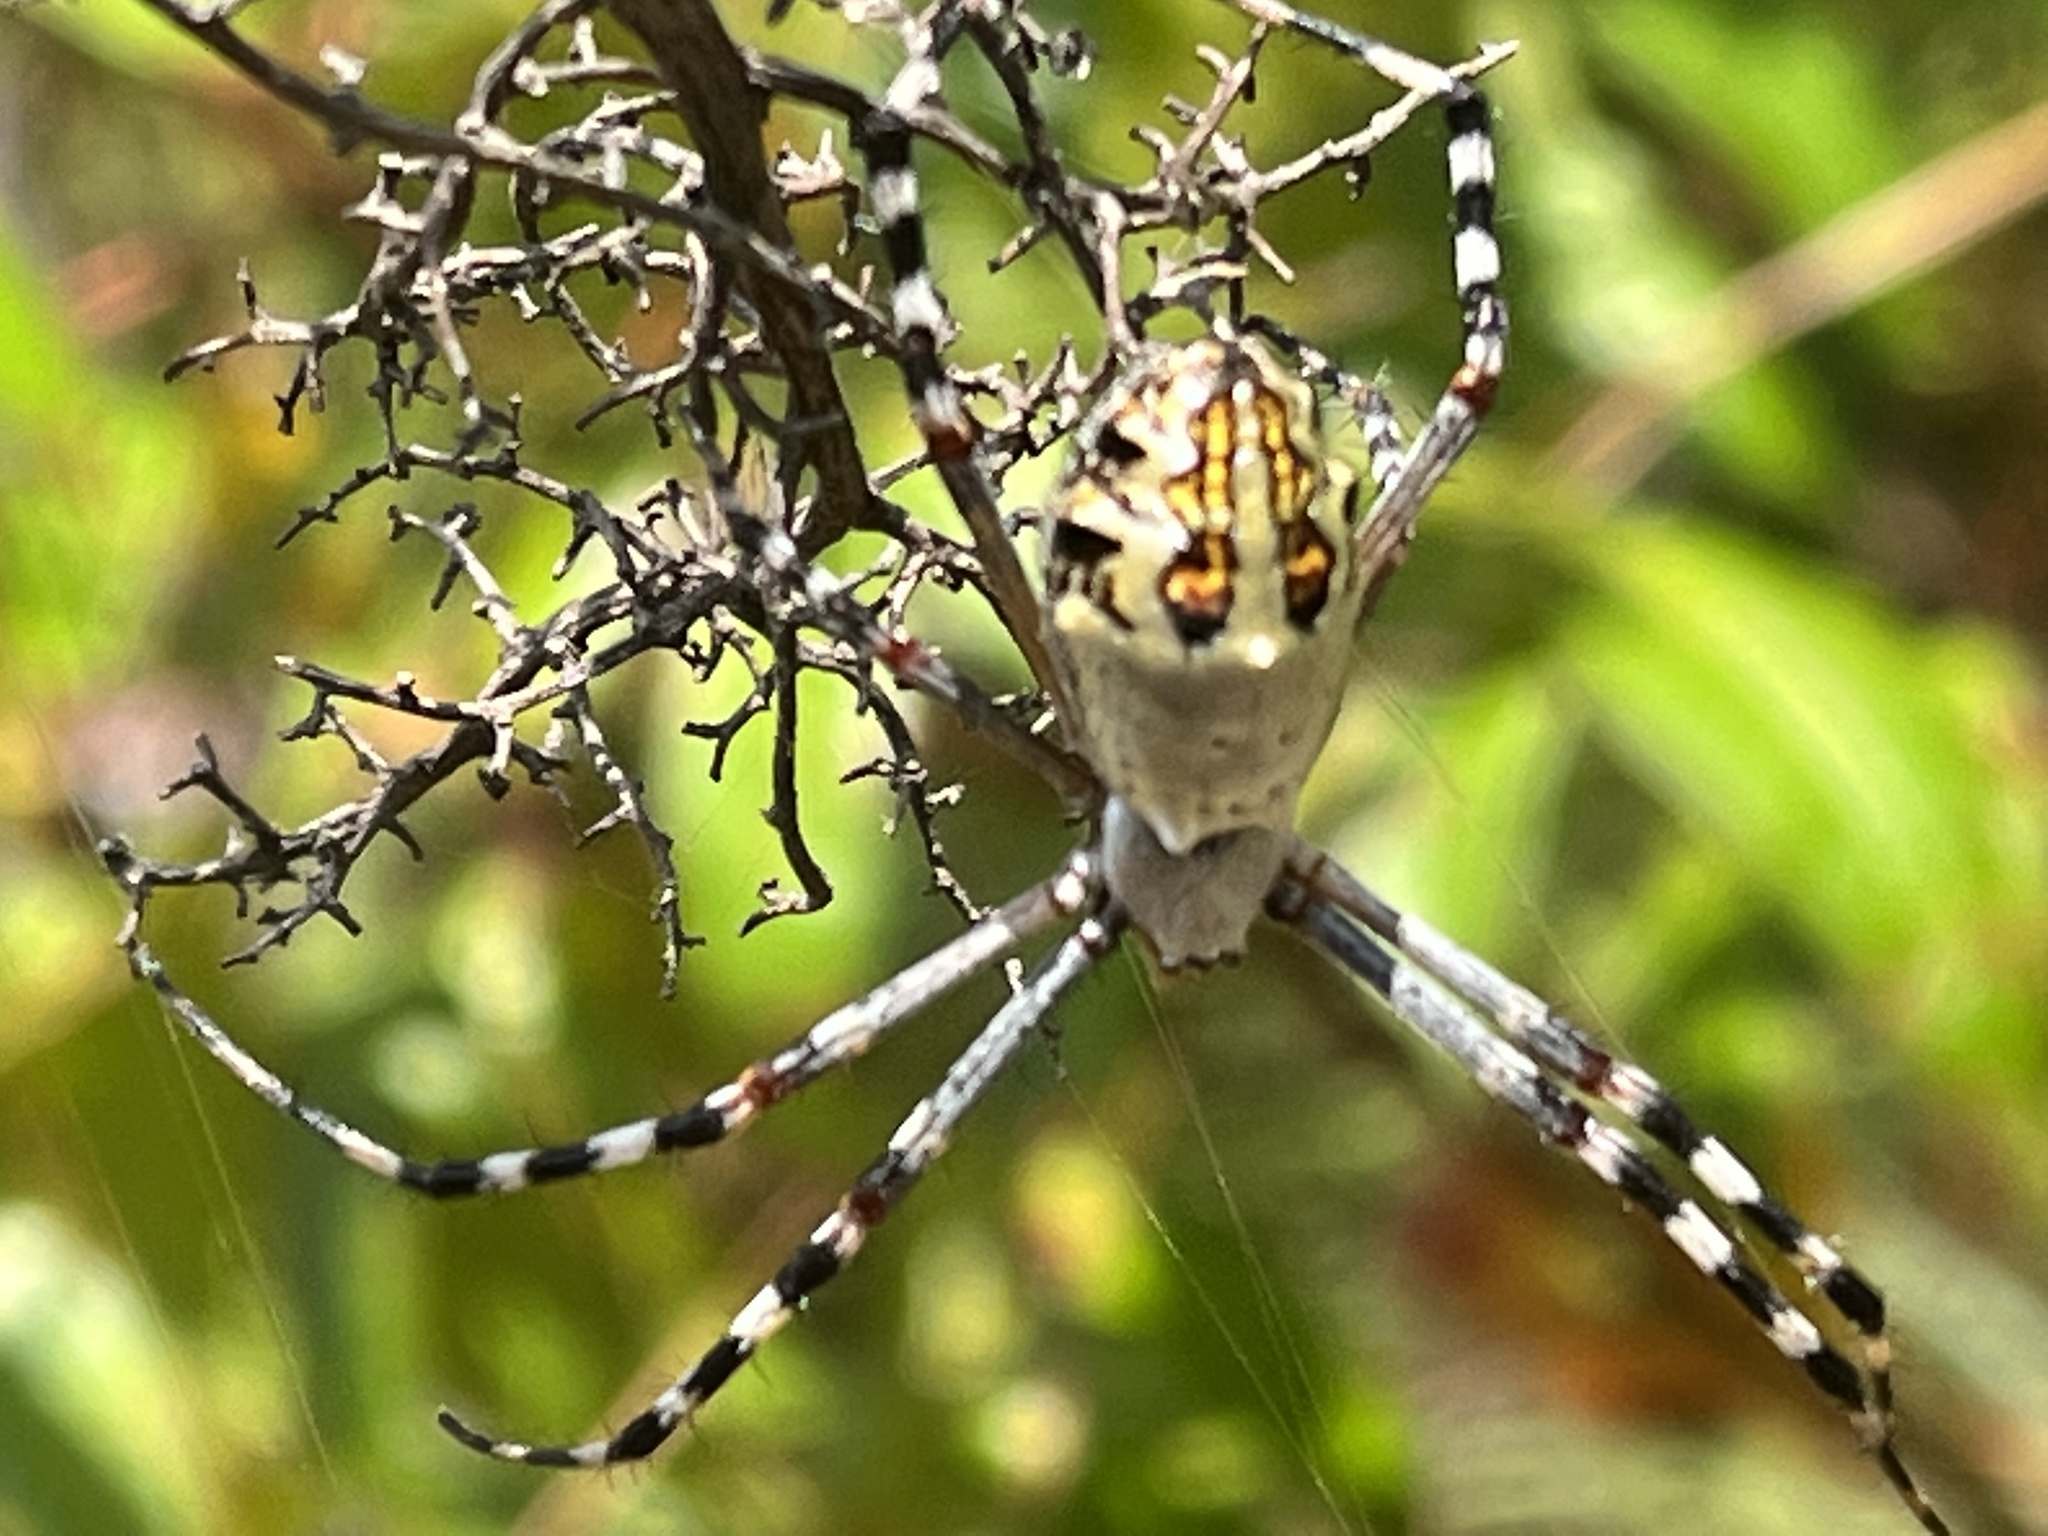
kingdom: Animalia
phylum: Arthropoda
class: Arachnida
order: Araneae
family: Araneidae
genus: Argiope
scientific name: Argiope florida
